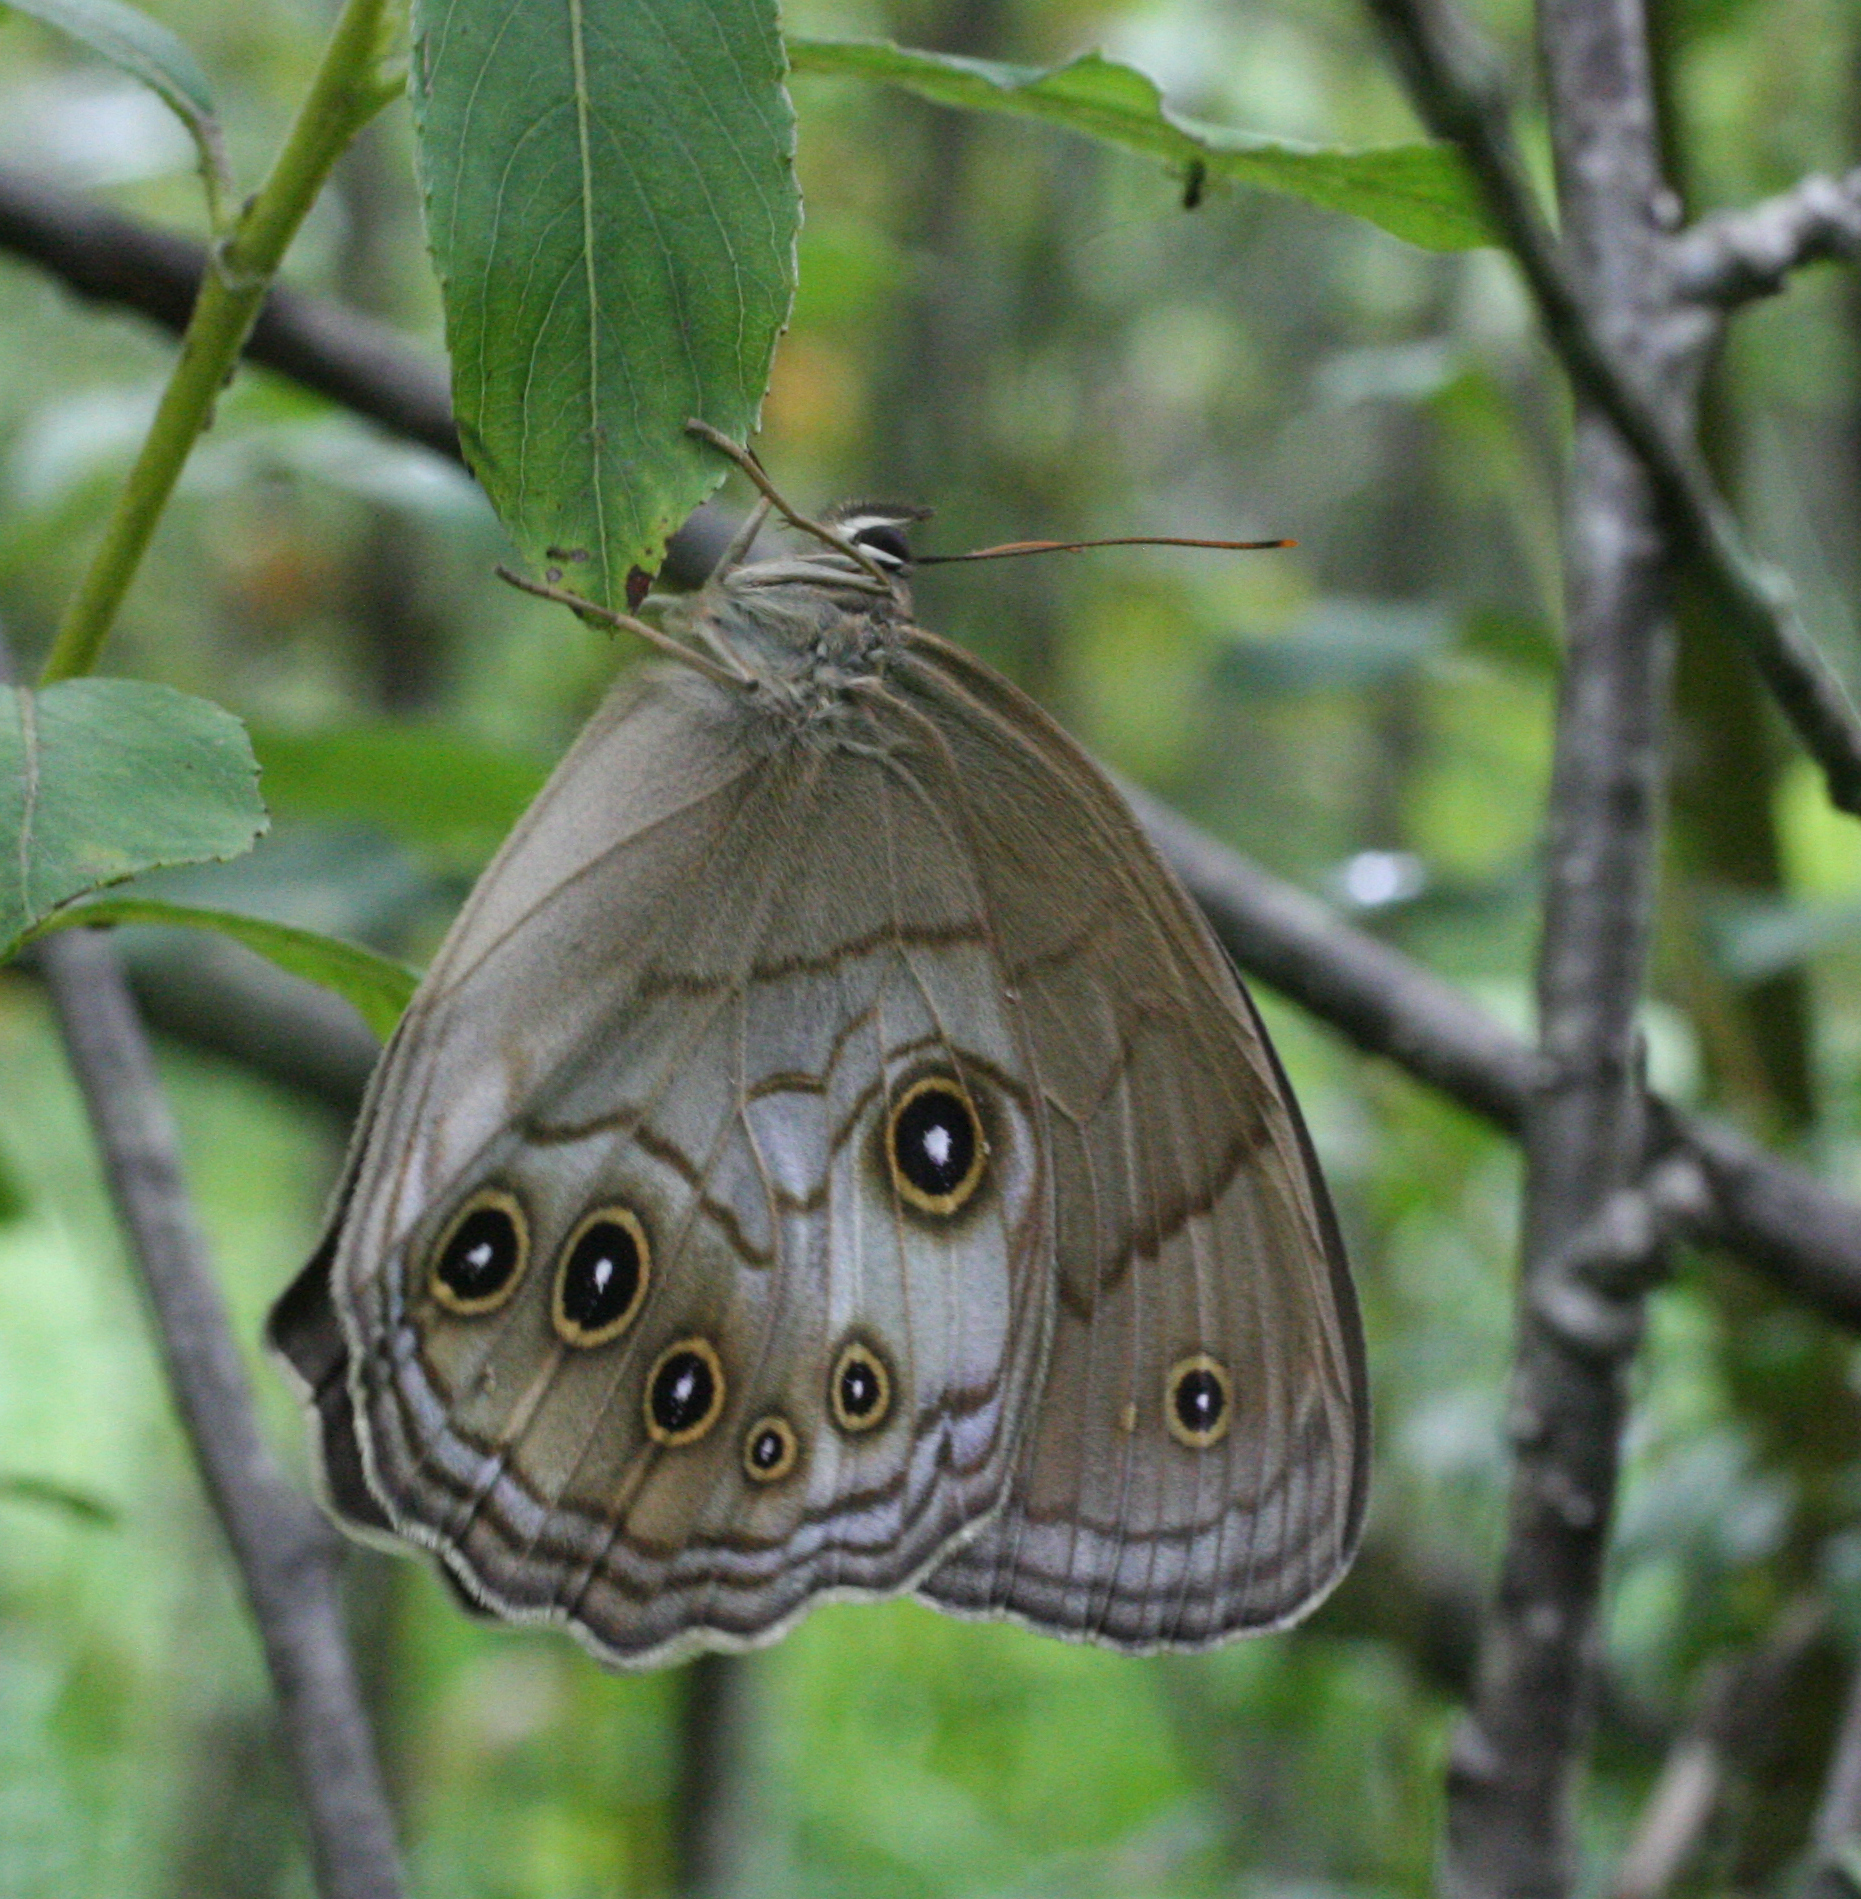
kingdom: Animalia
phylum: Arthropoda
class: Insecta
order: Lepidoptera
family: Nymphalidae
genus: Ninguta
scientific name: Ninguta schrenckii
